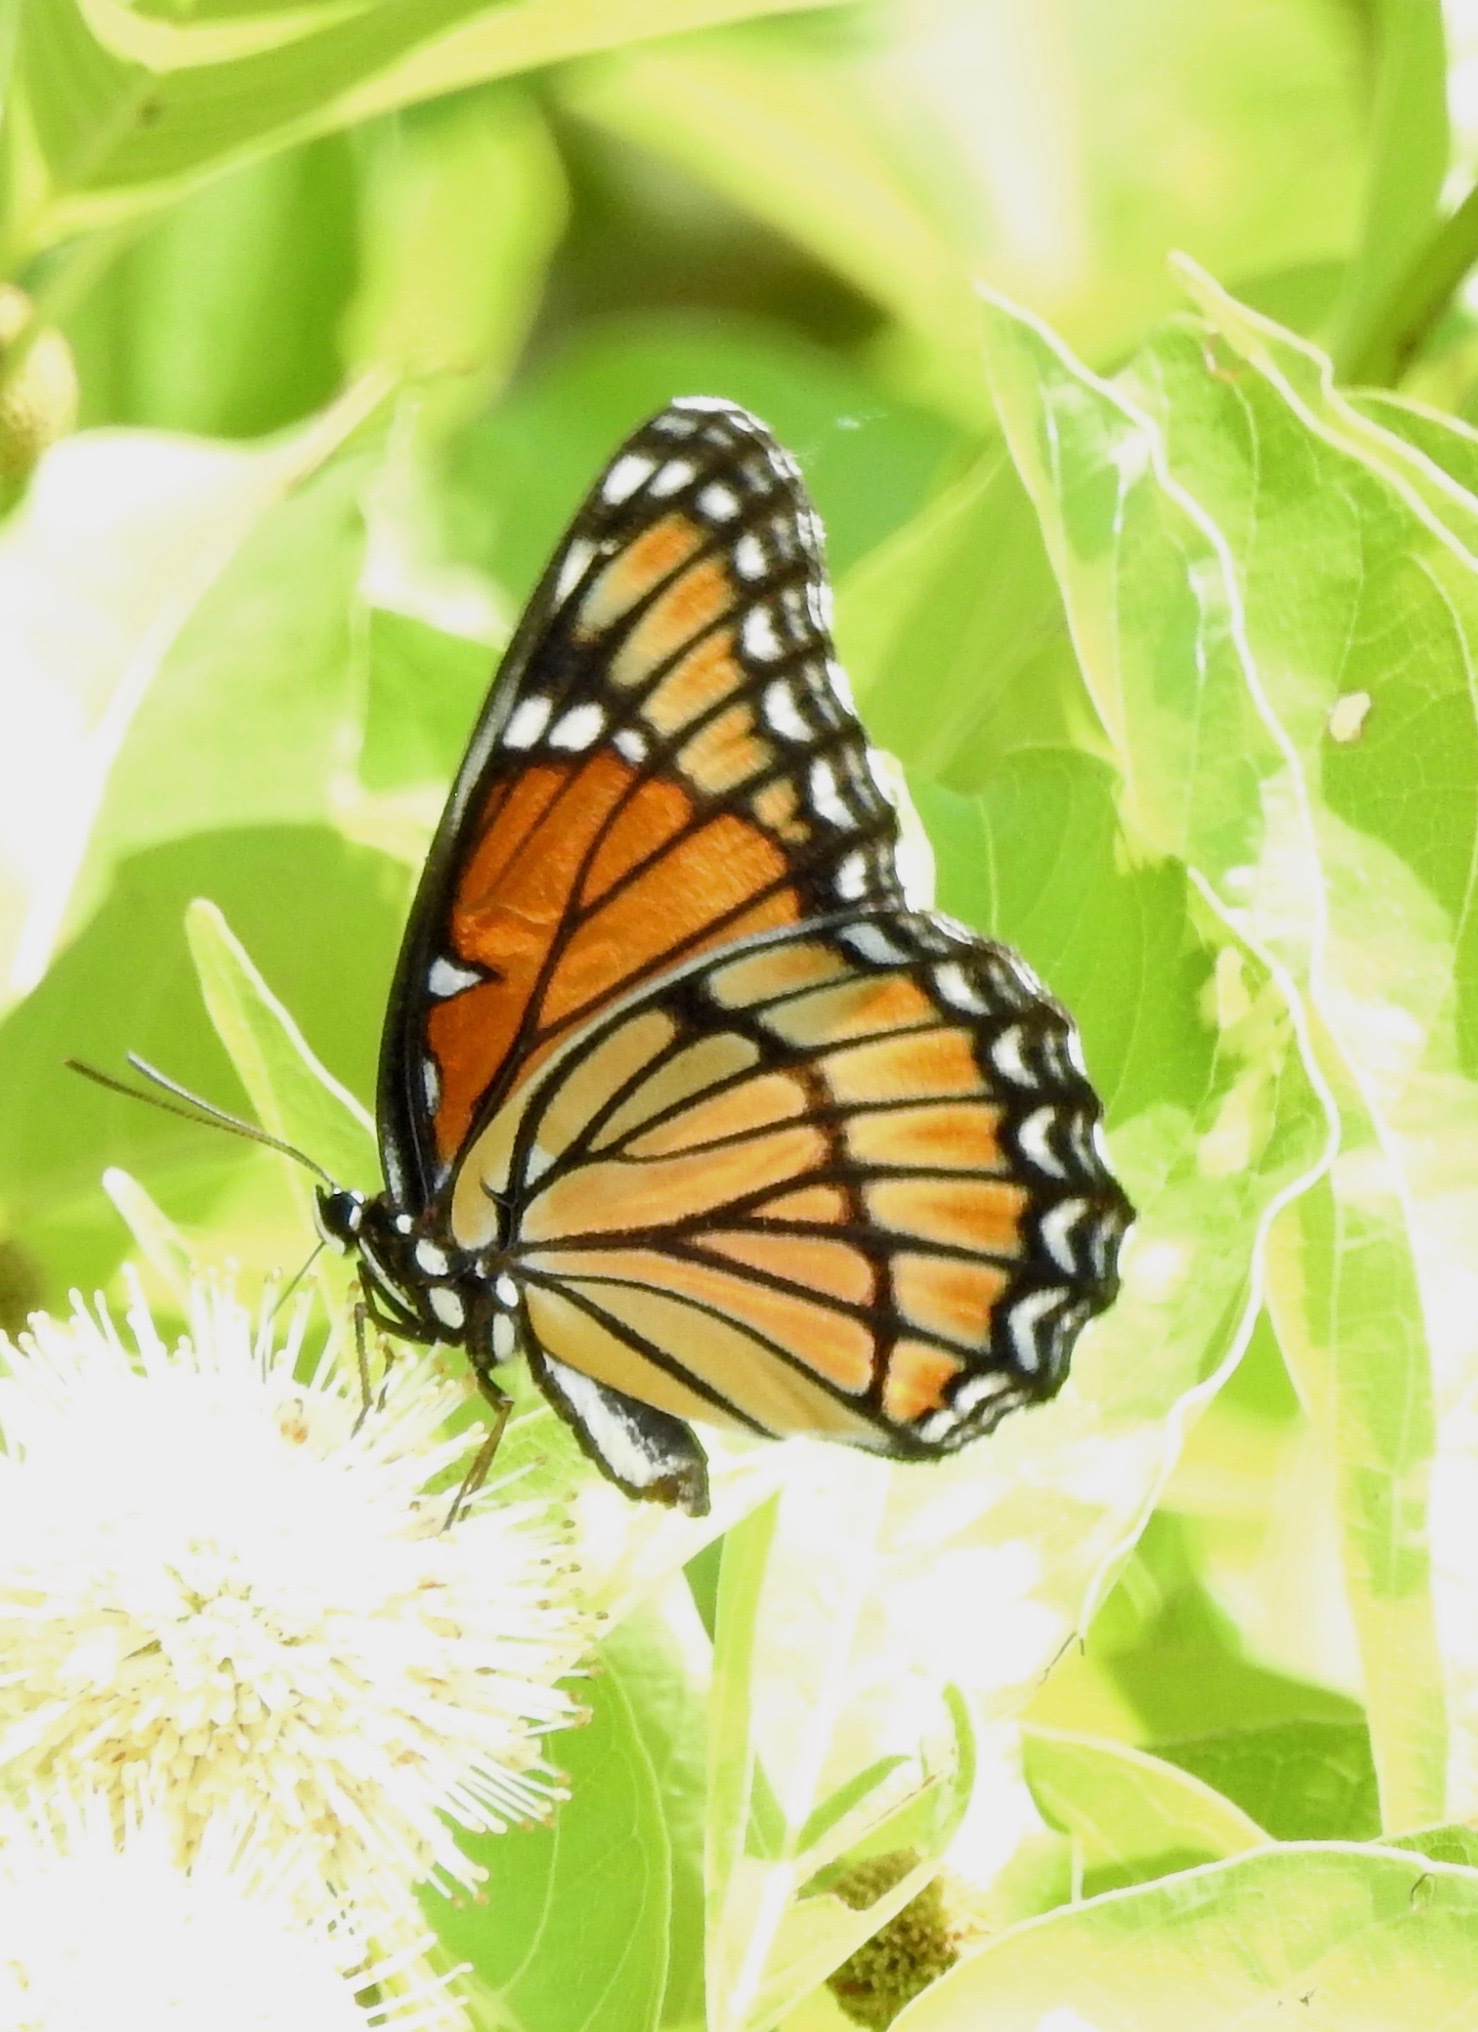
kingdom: Animalia
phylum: Arthropoda
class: Insecta
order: Lepidoptera
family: Nymphalidae
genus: Limenitis
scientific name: Limenitis archippus
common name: Viceroy
